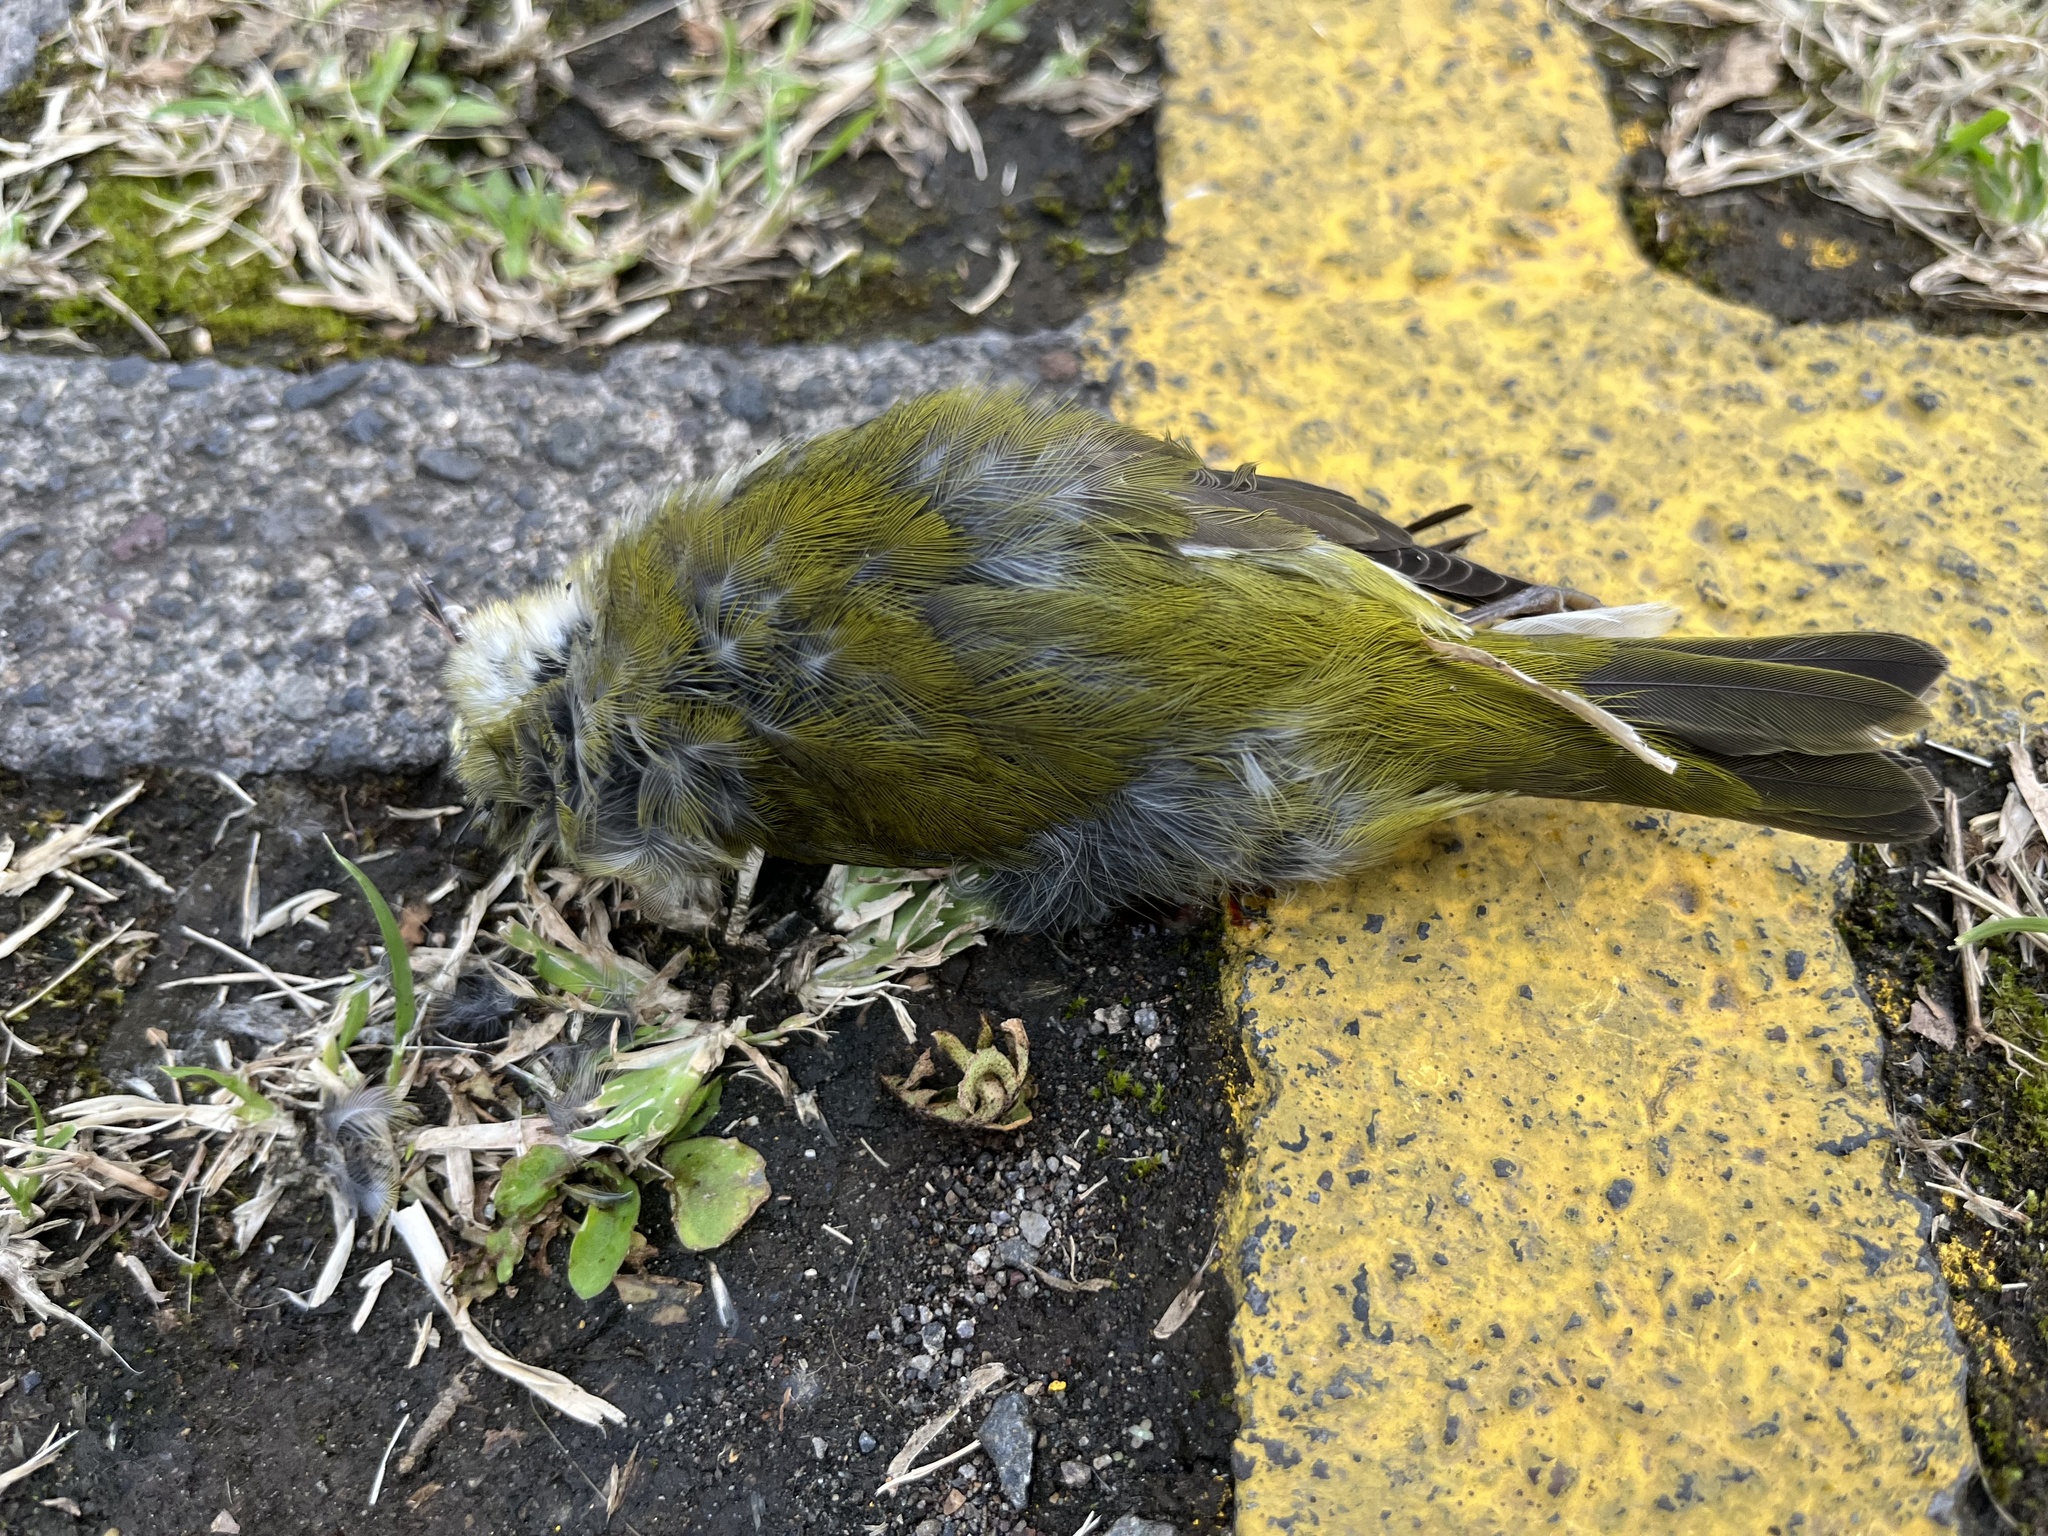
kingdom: Animalia
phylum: Chordata
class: Aves
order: Passeriformes
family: Parulidae
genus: Leiothlypis
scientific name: Leiothlypis peregrina
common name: Tennessee warbler
